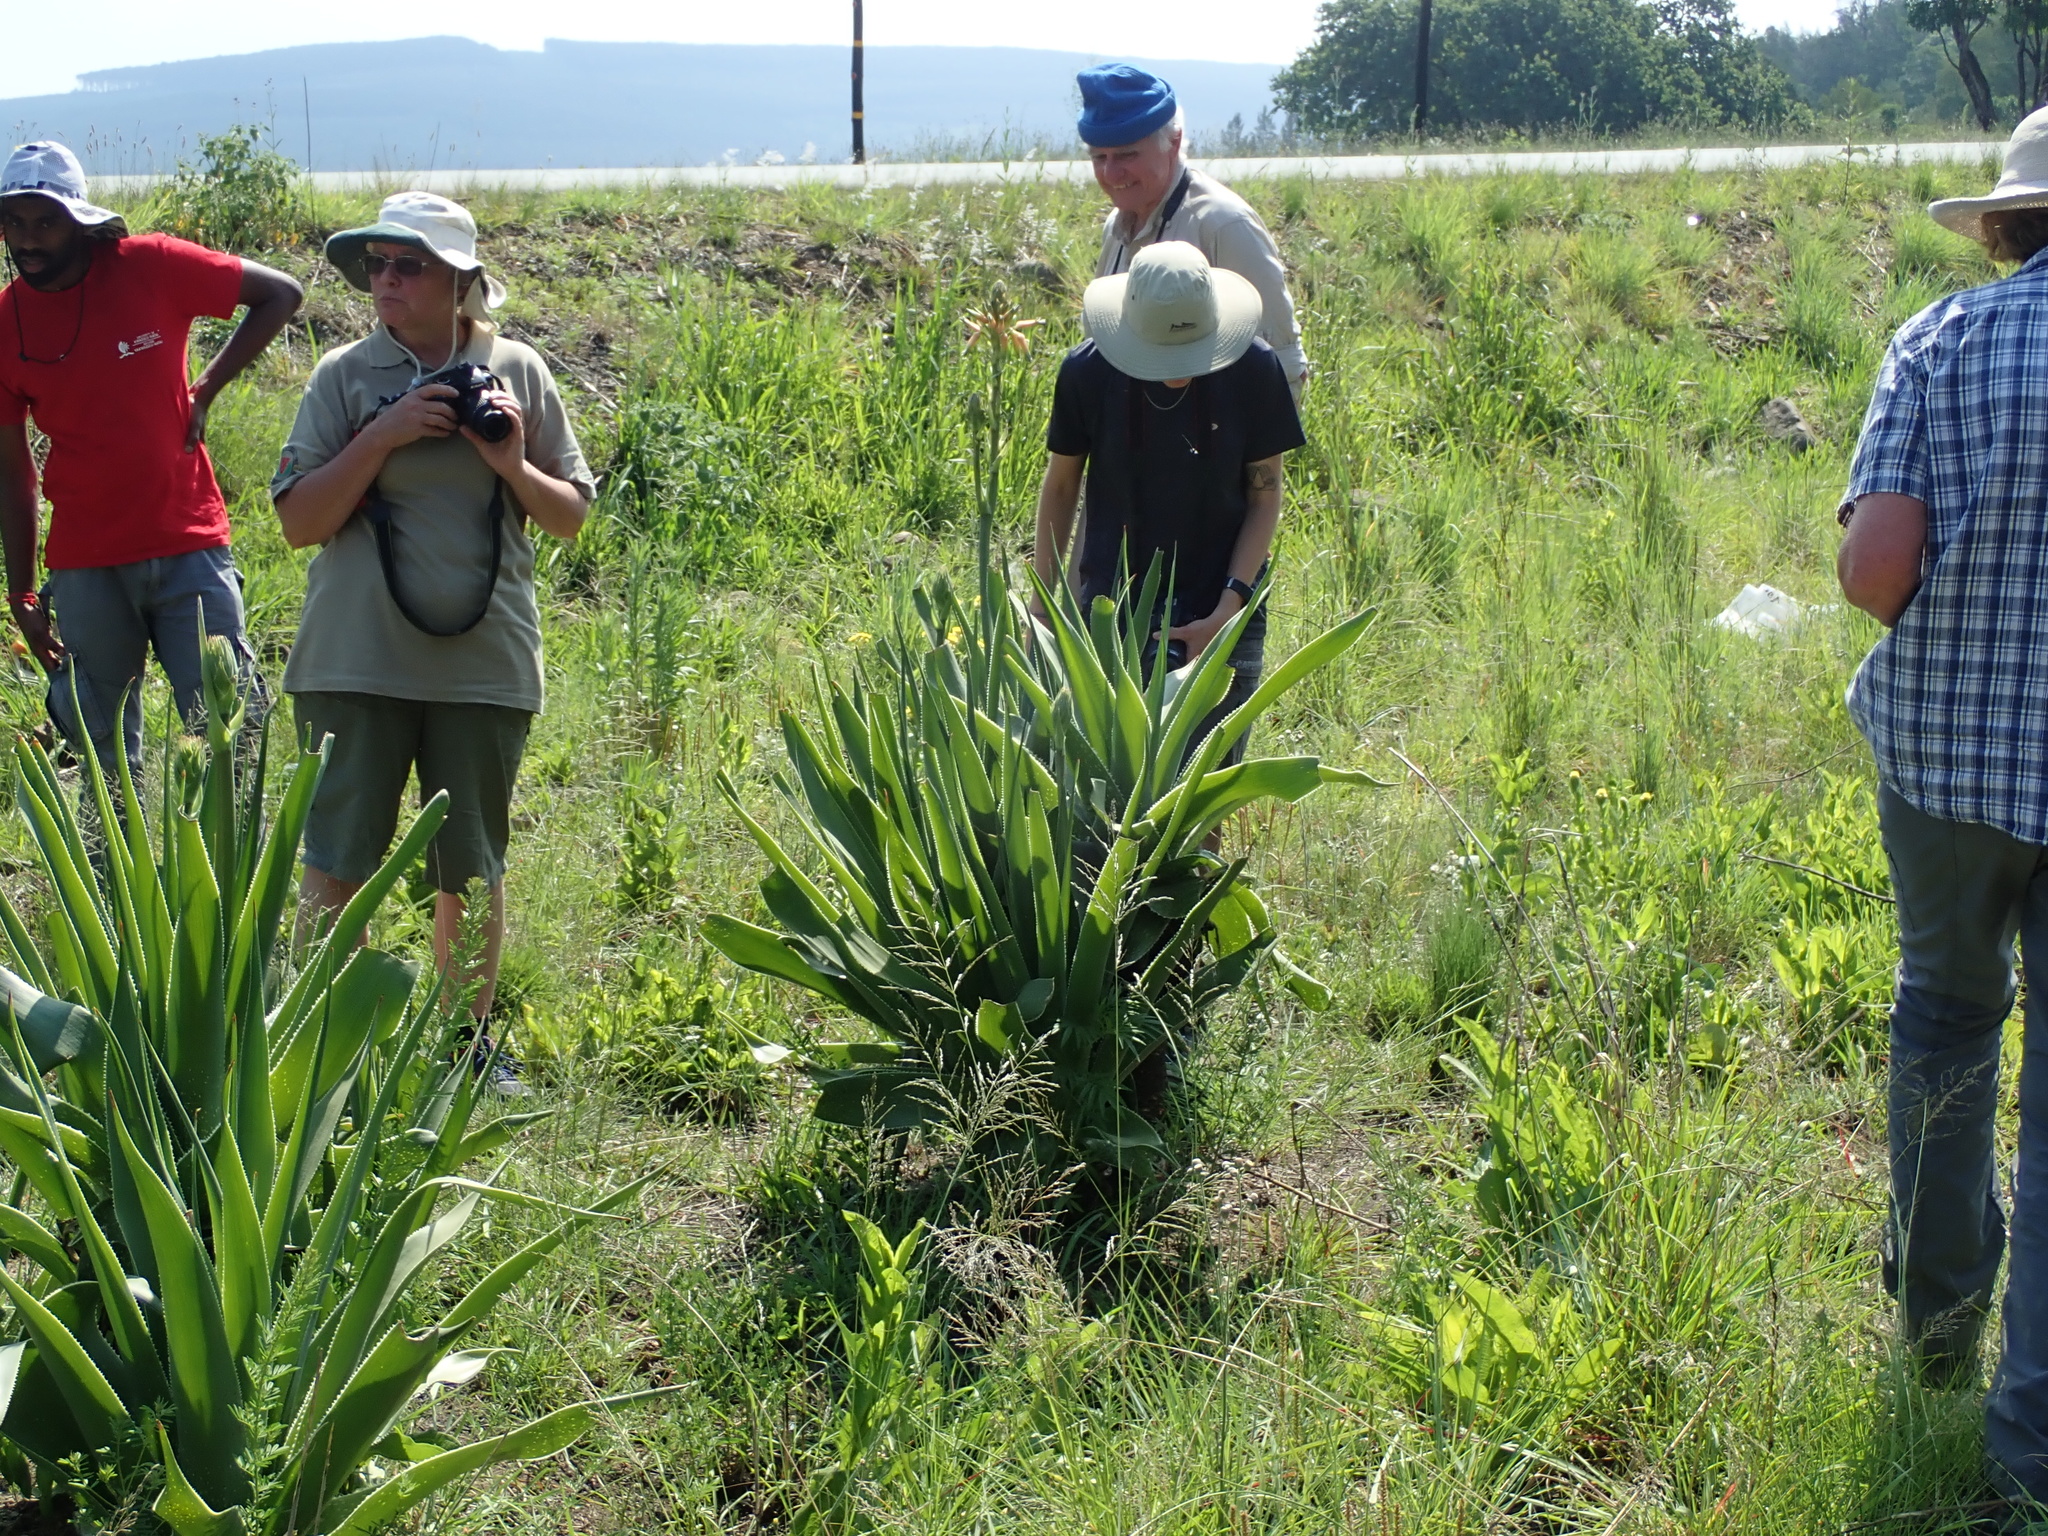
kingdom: Plantae
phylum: Tracheophyta
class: Liliopsida
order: Asparagales
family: Asphodelaceae
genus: Aloe
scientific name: Aloe neilcrouchii
